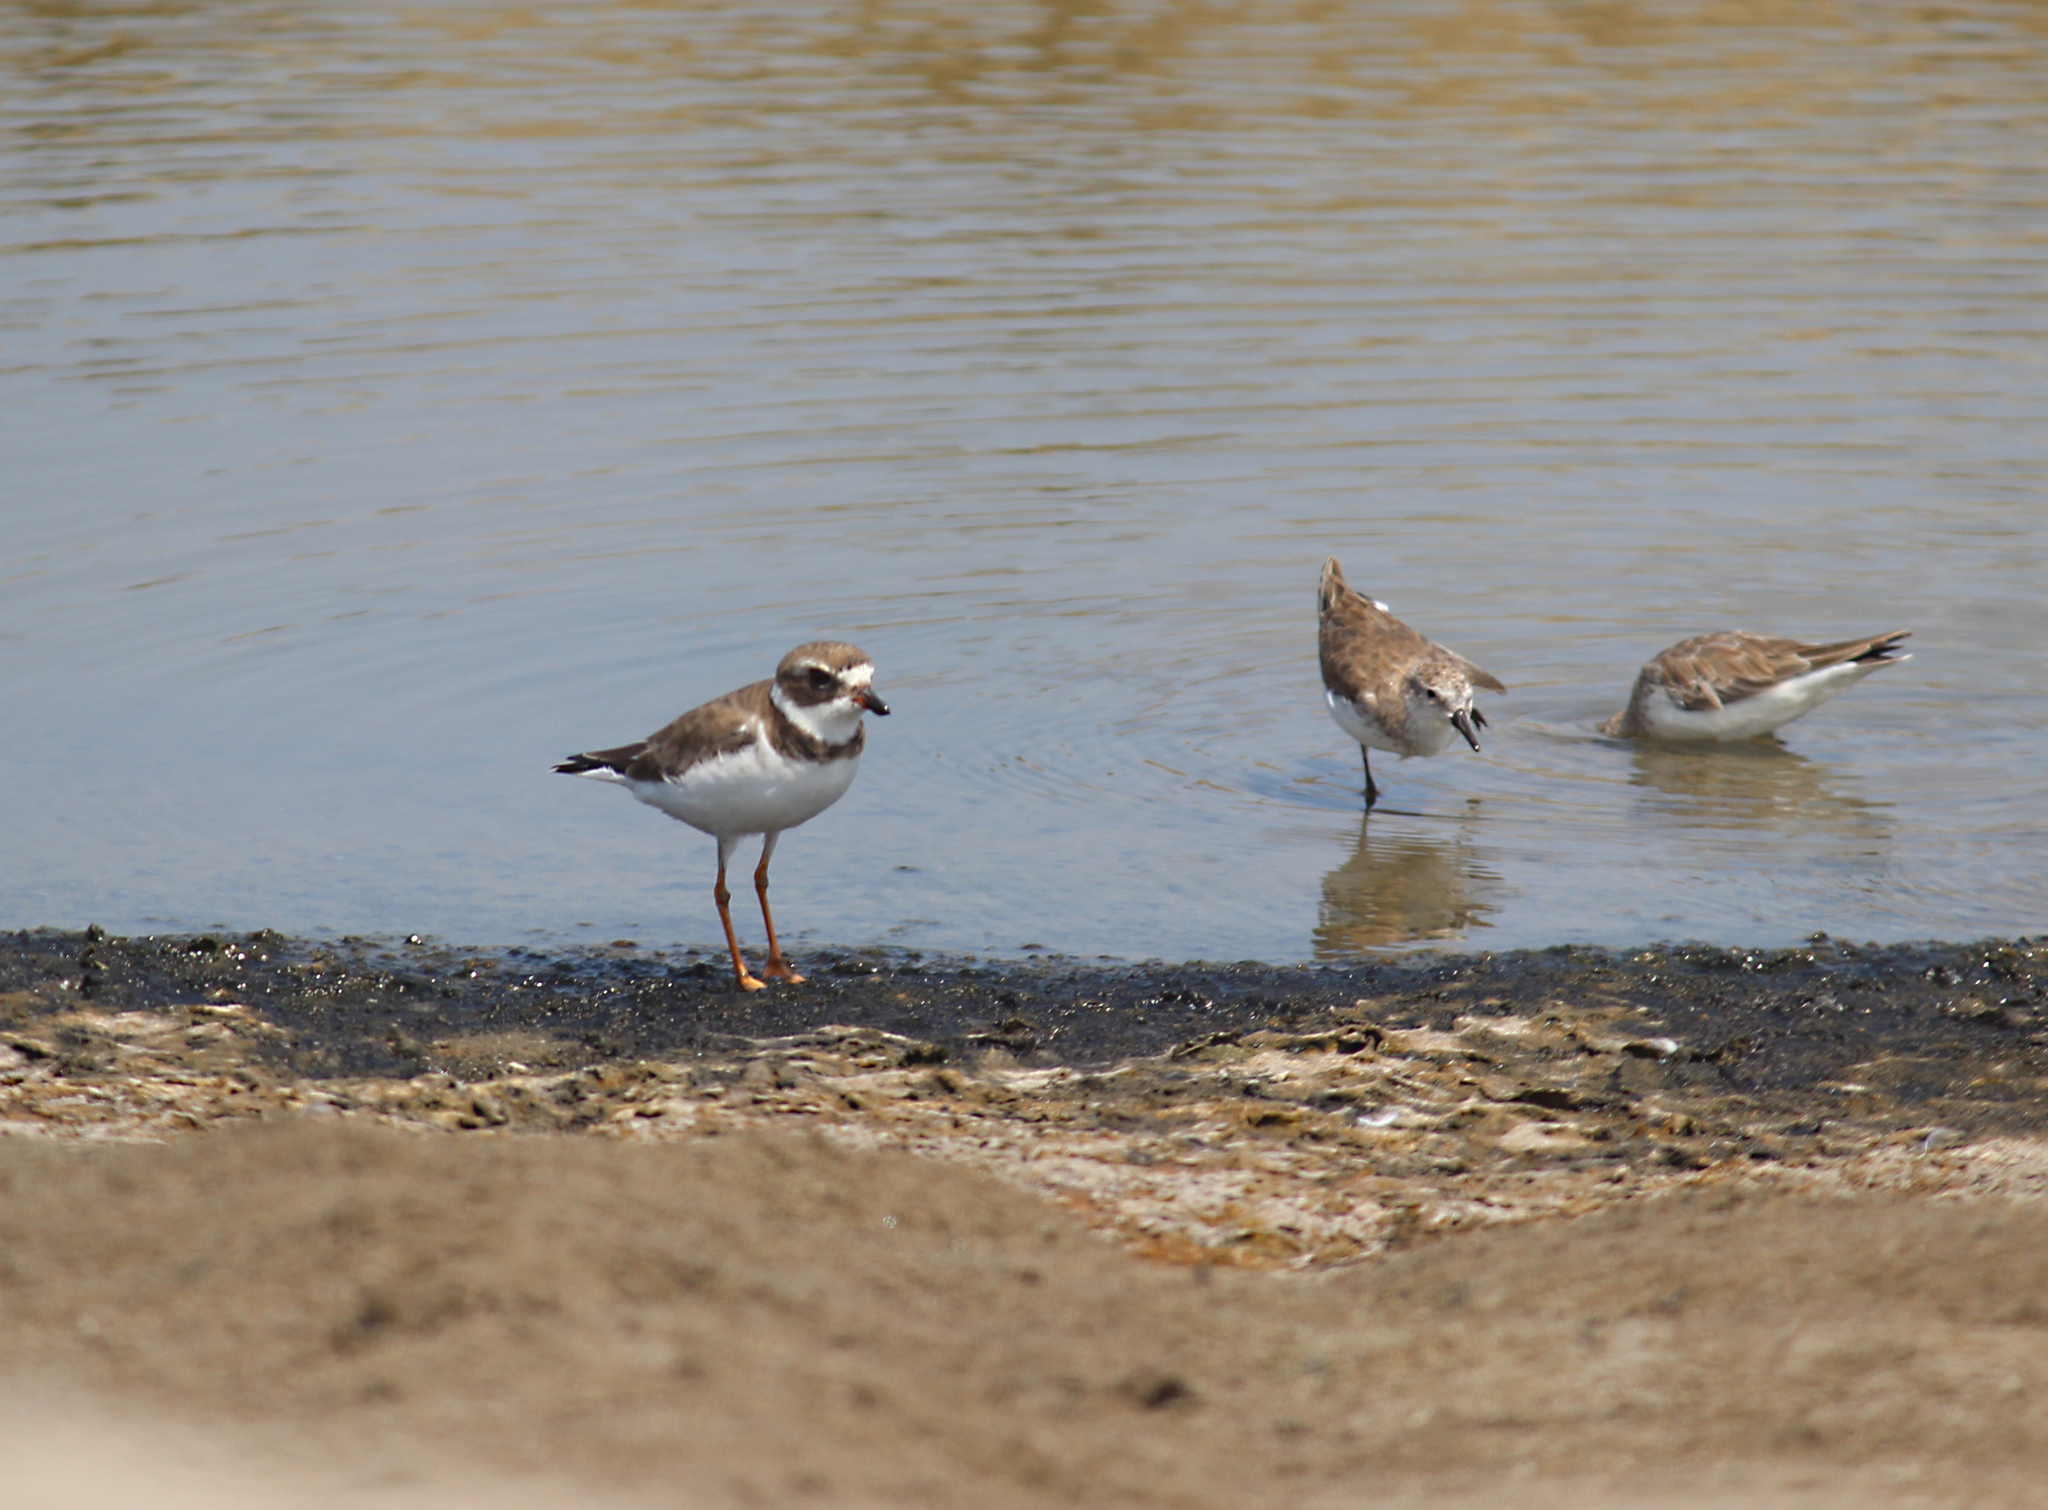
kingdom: Animalia
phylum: Chordata
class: Aves
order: Charadriiformes
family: Charadriidae
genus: Charadrius
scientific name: Charadrius semipalmatus
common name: Semipalmated plover
